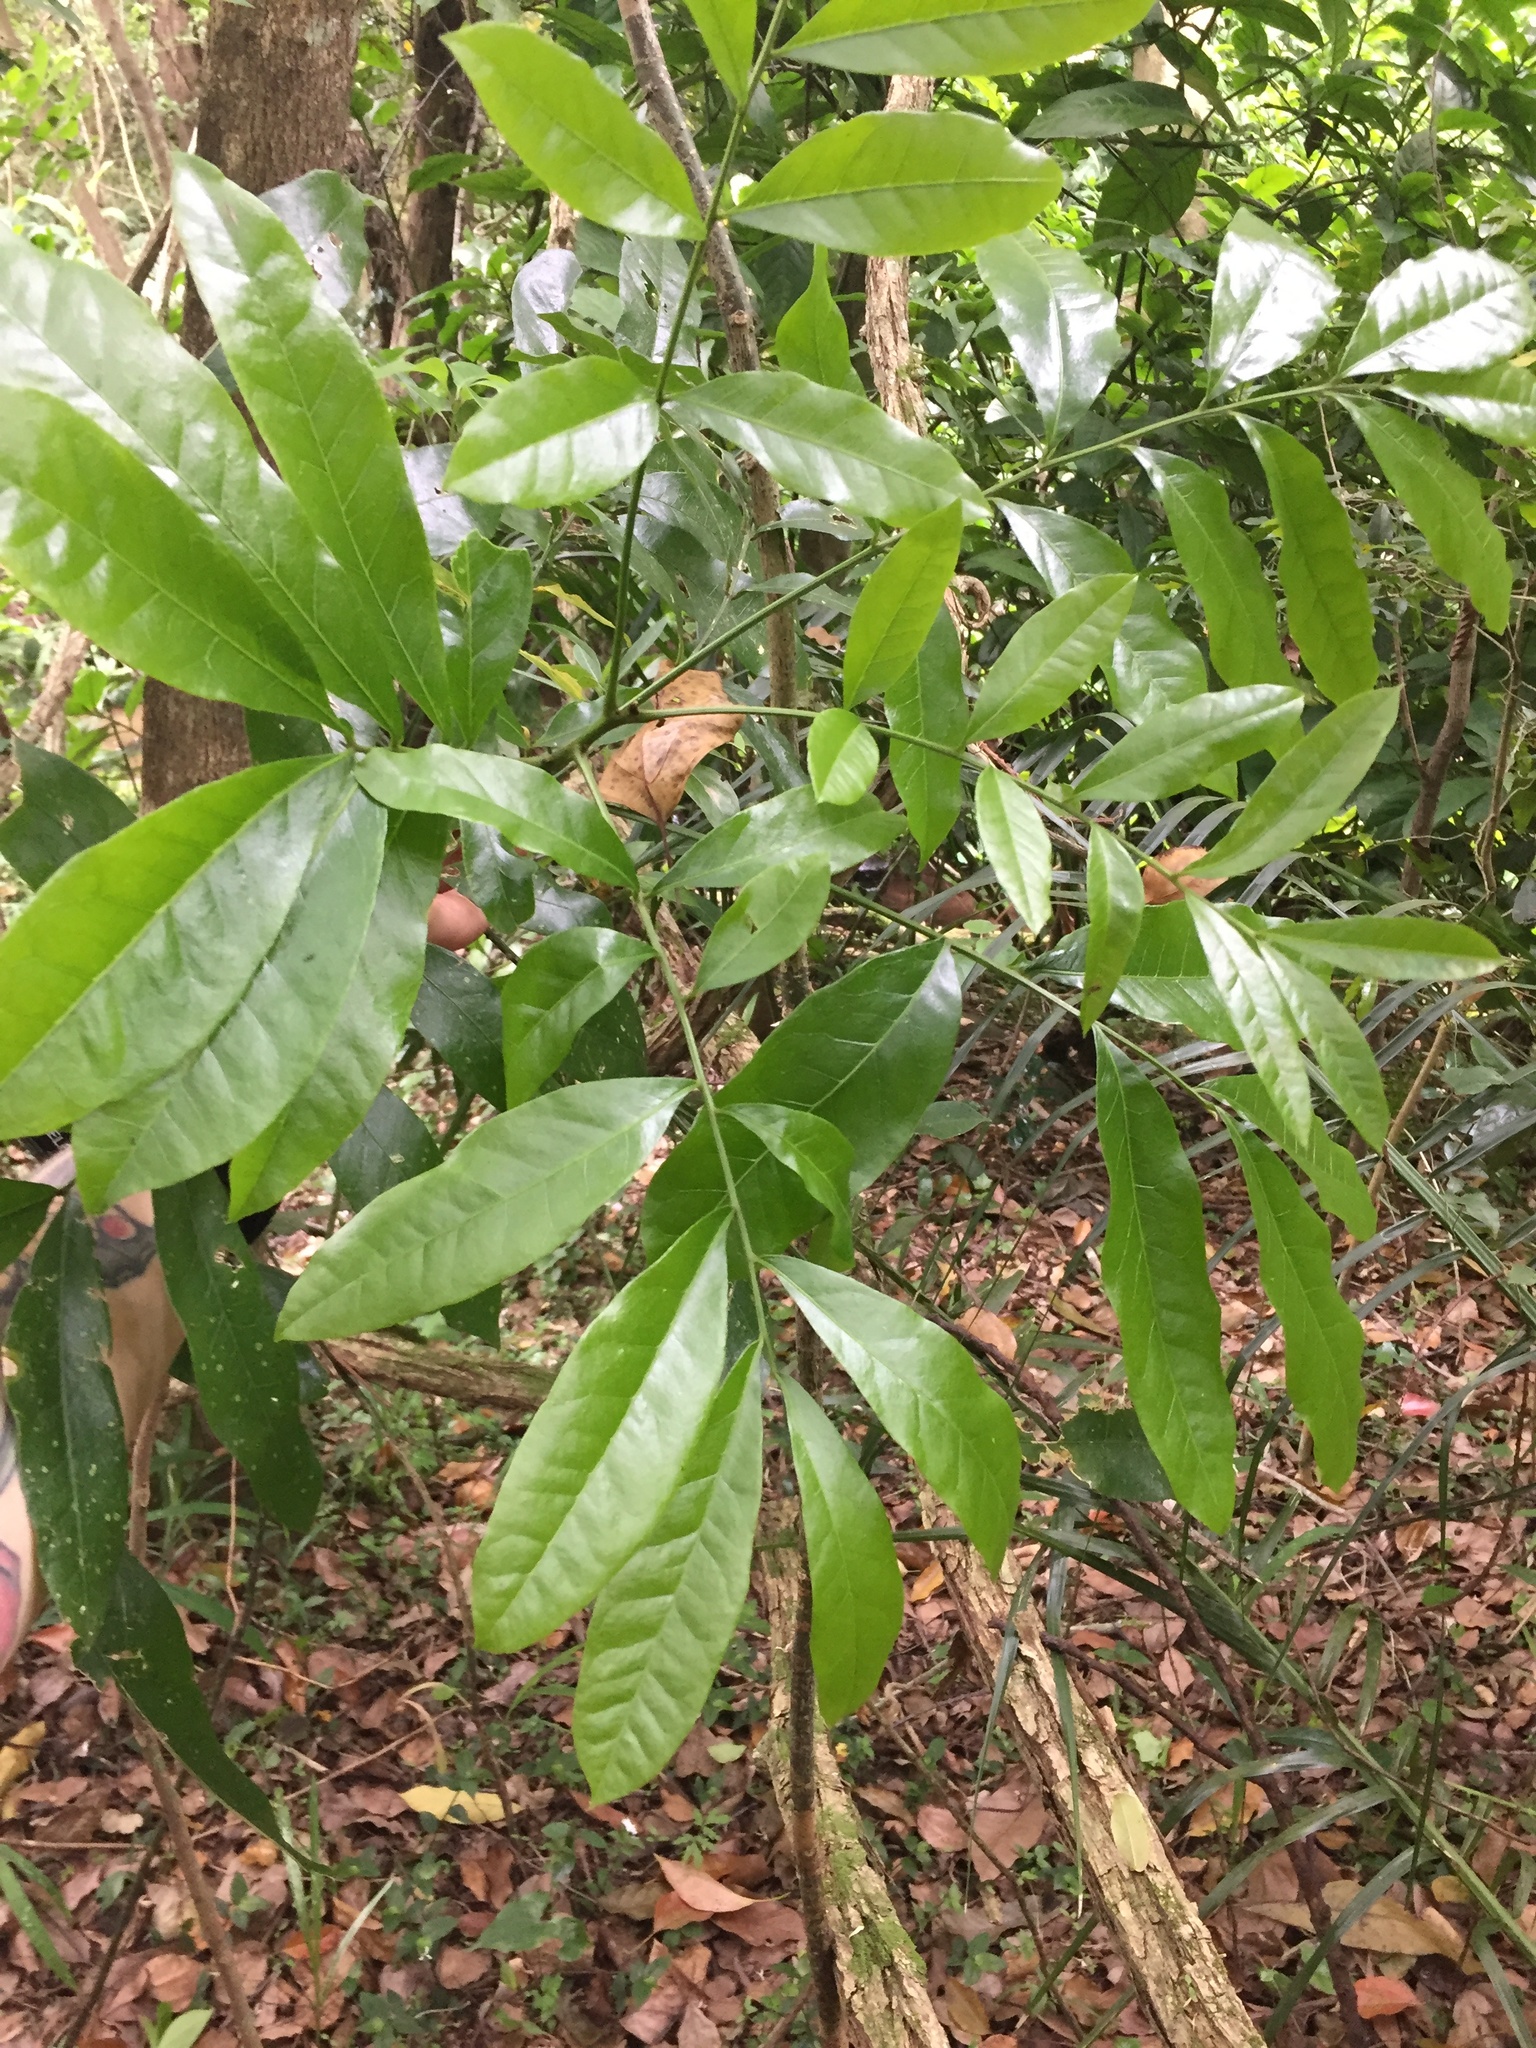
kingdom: Plantae
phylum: Tracheophyta
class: Magnoliopsida
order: Sapindales
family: Sapindaceae
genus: Deinbollia
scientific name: Deinbollia oblongifolia
